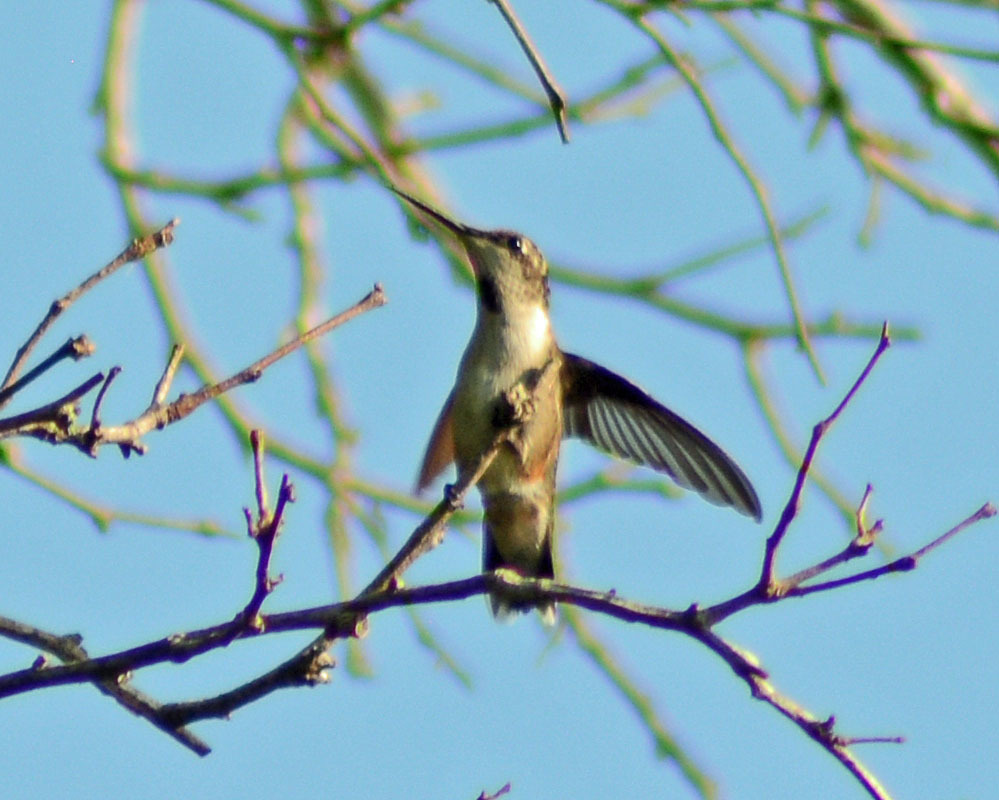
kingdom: Animalia
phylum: Chordata
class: Aves
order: Apodiformes
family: Trochilidae
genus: Archilochus
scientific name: Archilochus colubris
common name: Ruby-throated hummingbird
